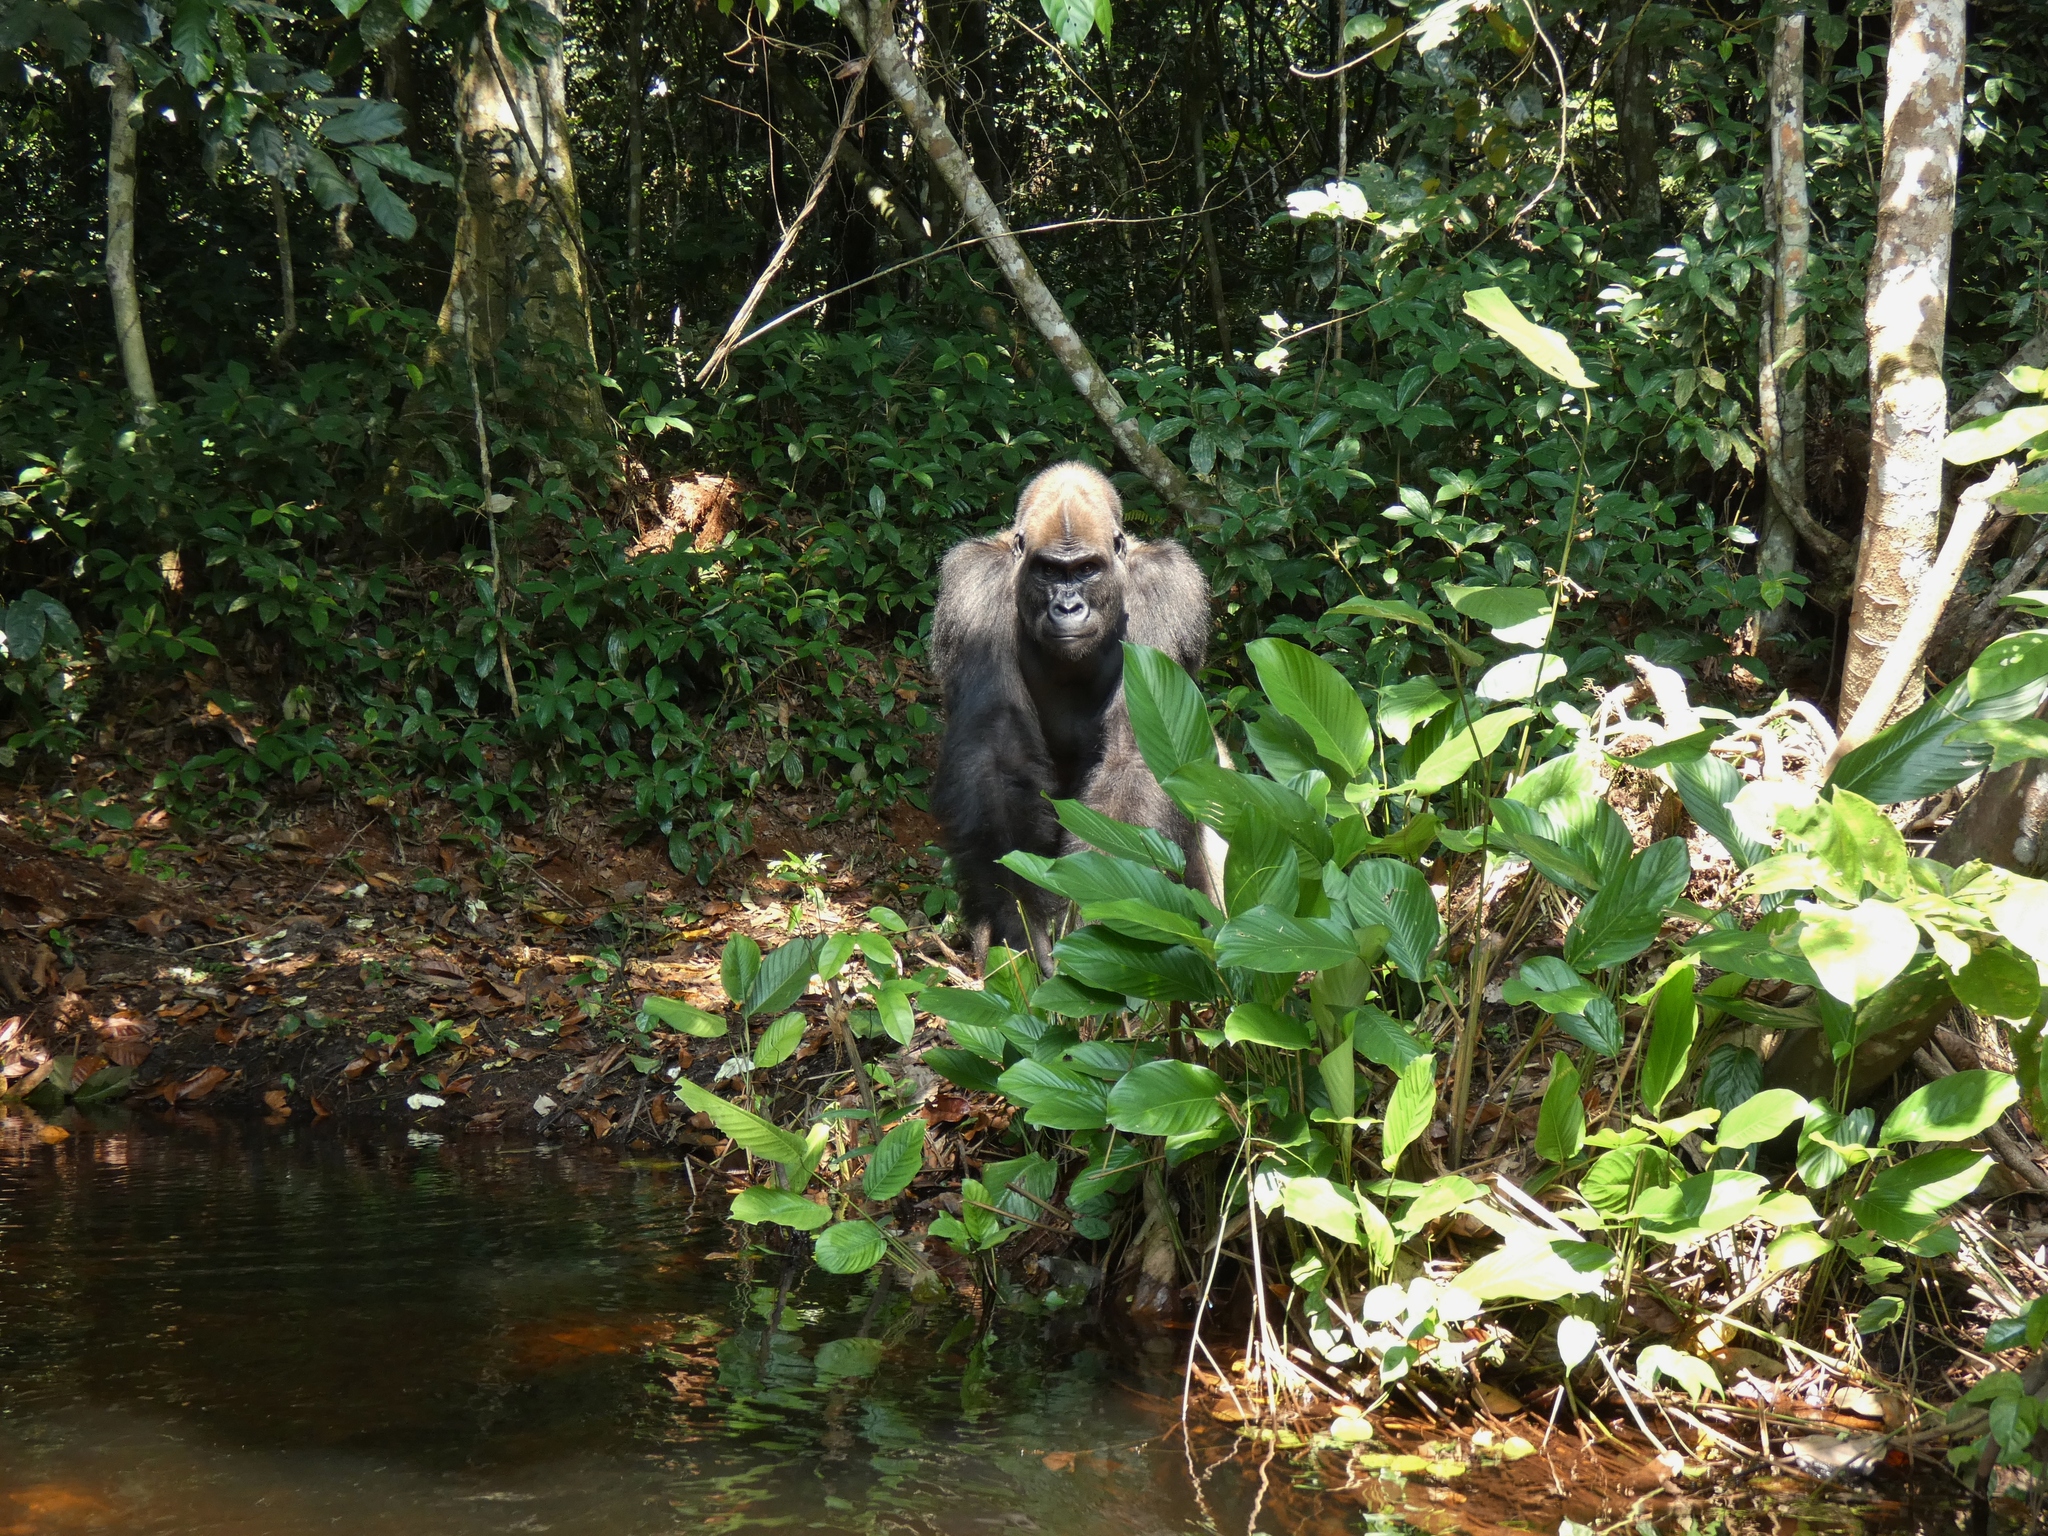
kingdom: Animalia
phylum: Chordata
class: Mammalia
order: Primates
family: Hominidae
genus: Gorilla
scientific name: Gorilla gorilla
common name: Western gorilla
